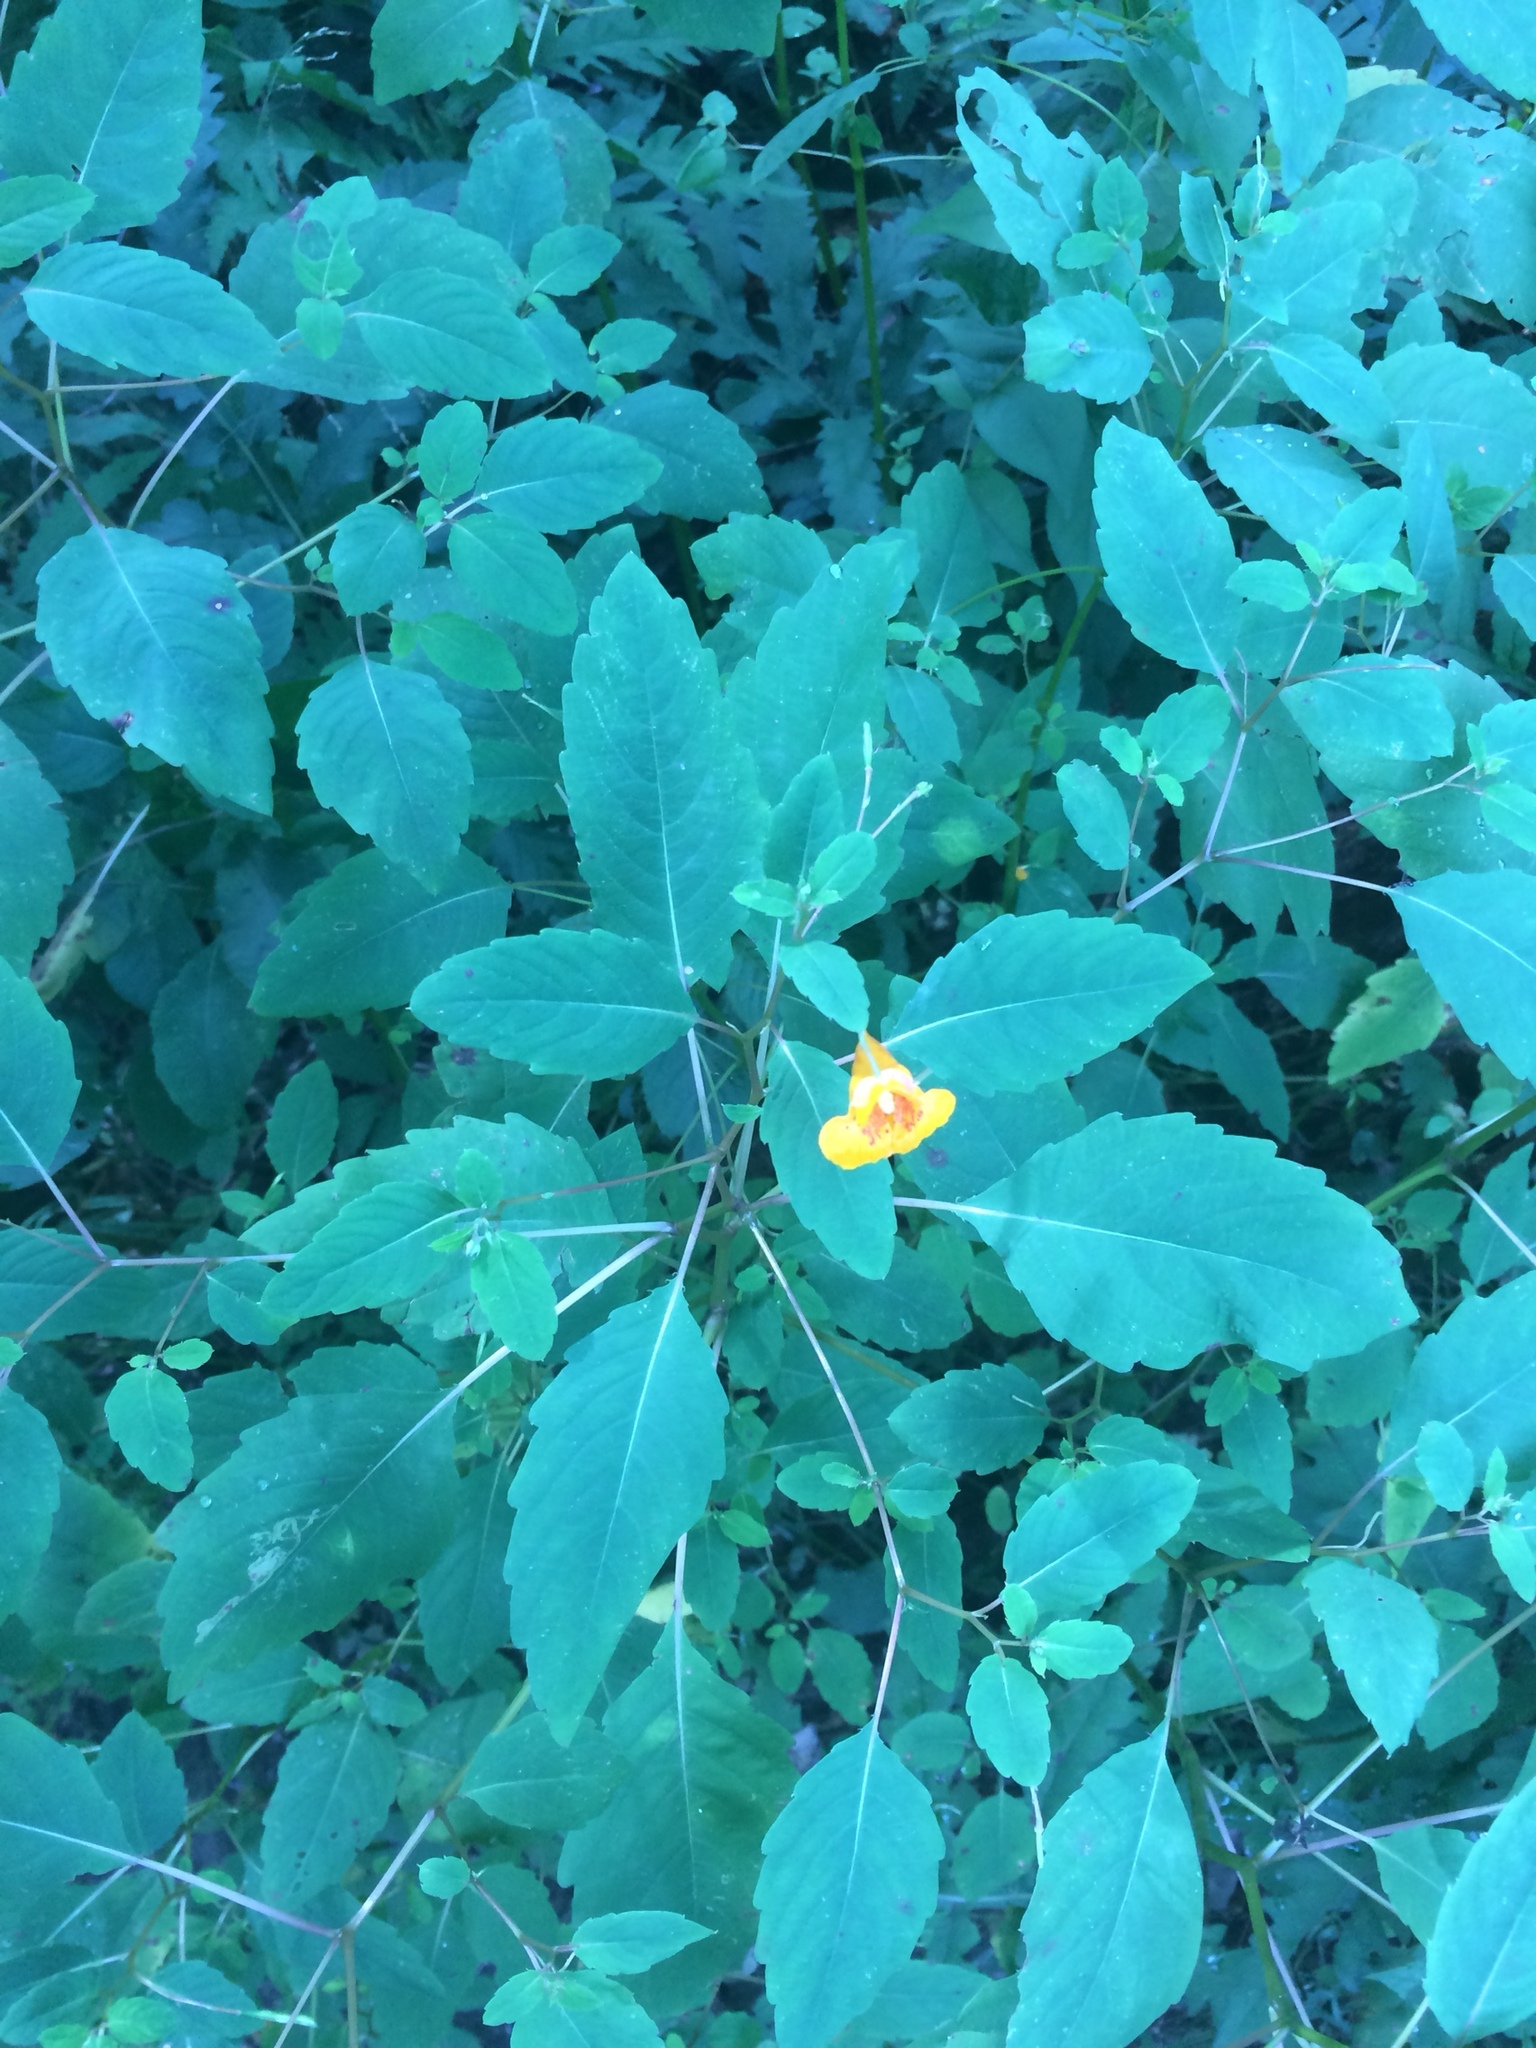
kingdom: Plantae
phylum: Tracheophyta
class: Magnoliopsida
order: Ericales
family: Balsaminaceae
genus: Impatiens
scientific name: Impatiens capensis
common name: Orange balsam
